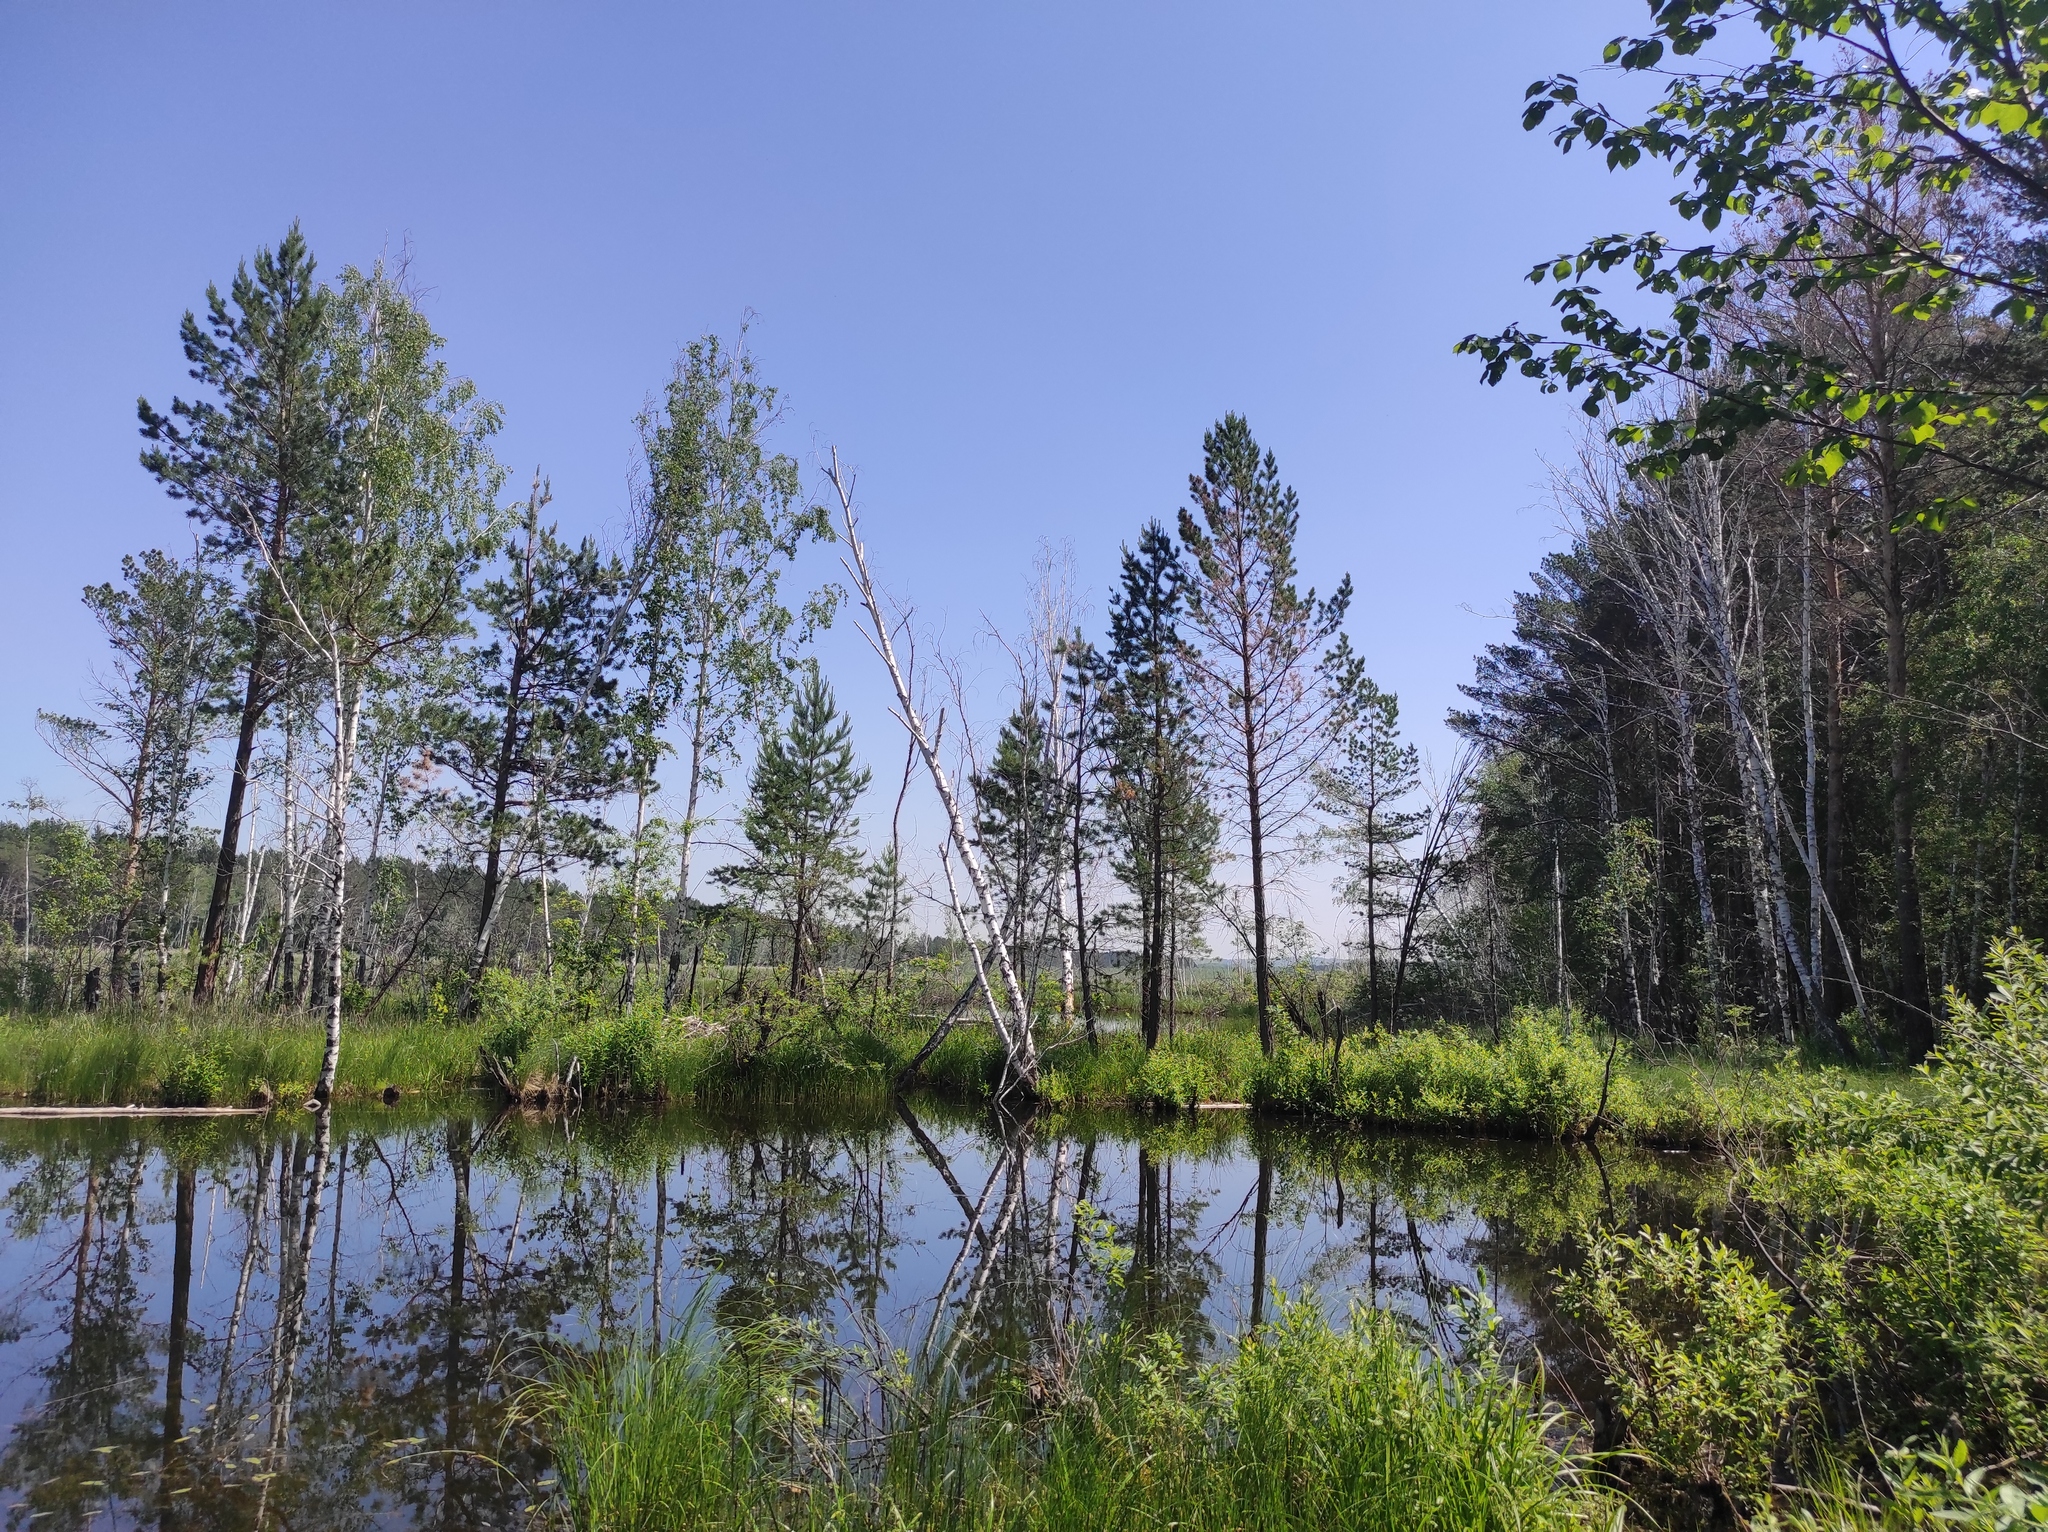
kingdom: Plantae
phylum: Tracheophyta
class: Pinopsida
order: Pinales
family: Pinaceae
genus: Pinus
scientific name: Pinus sylvestris
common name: Scots pine
